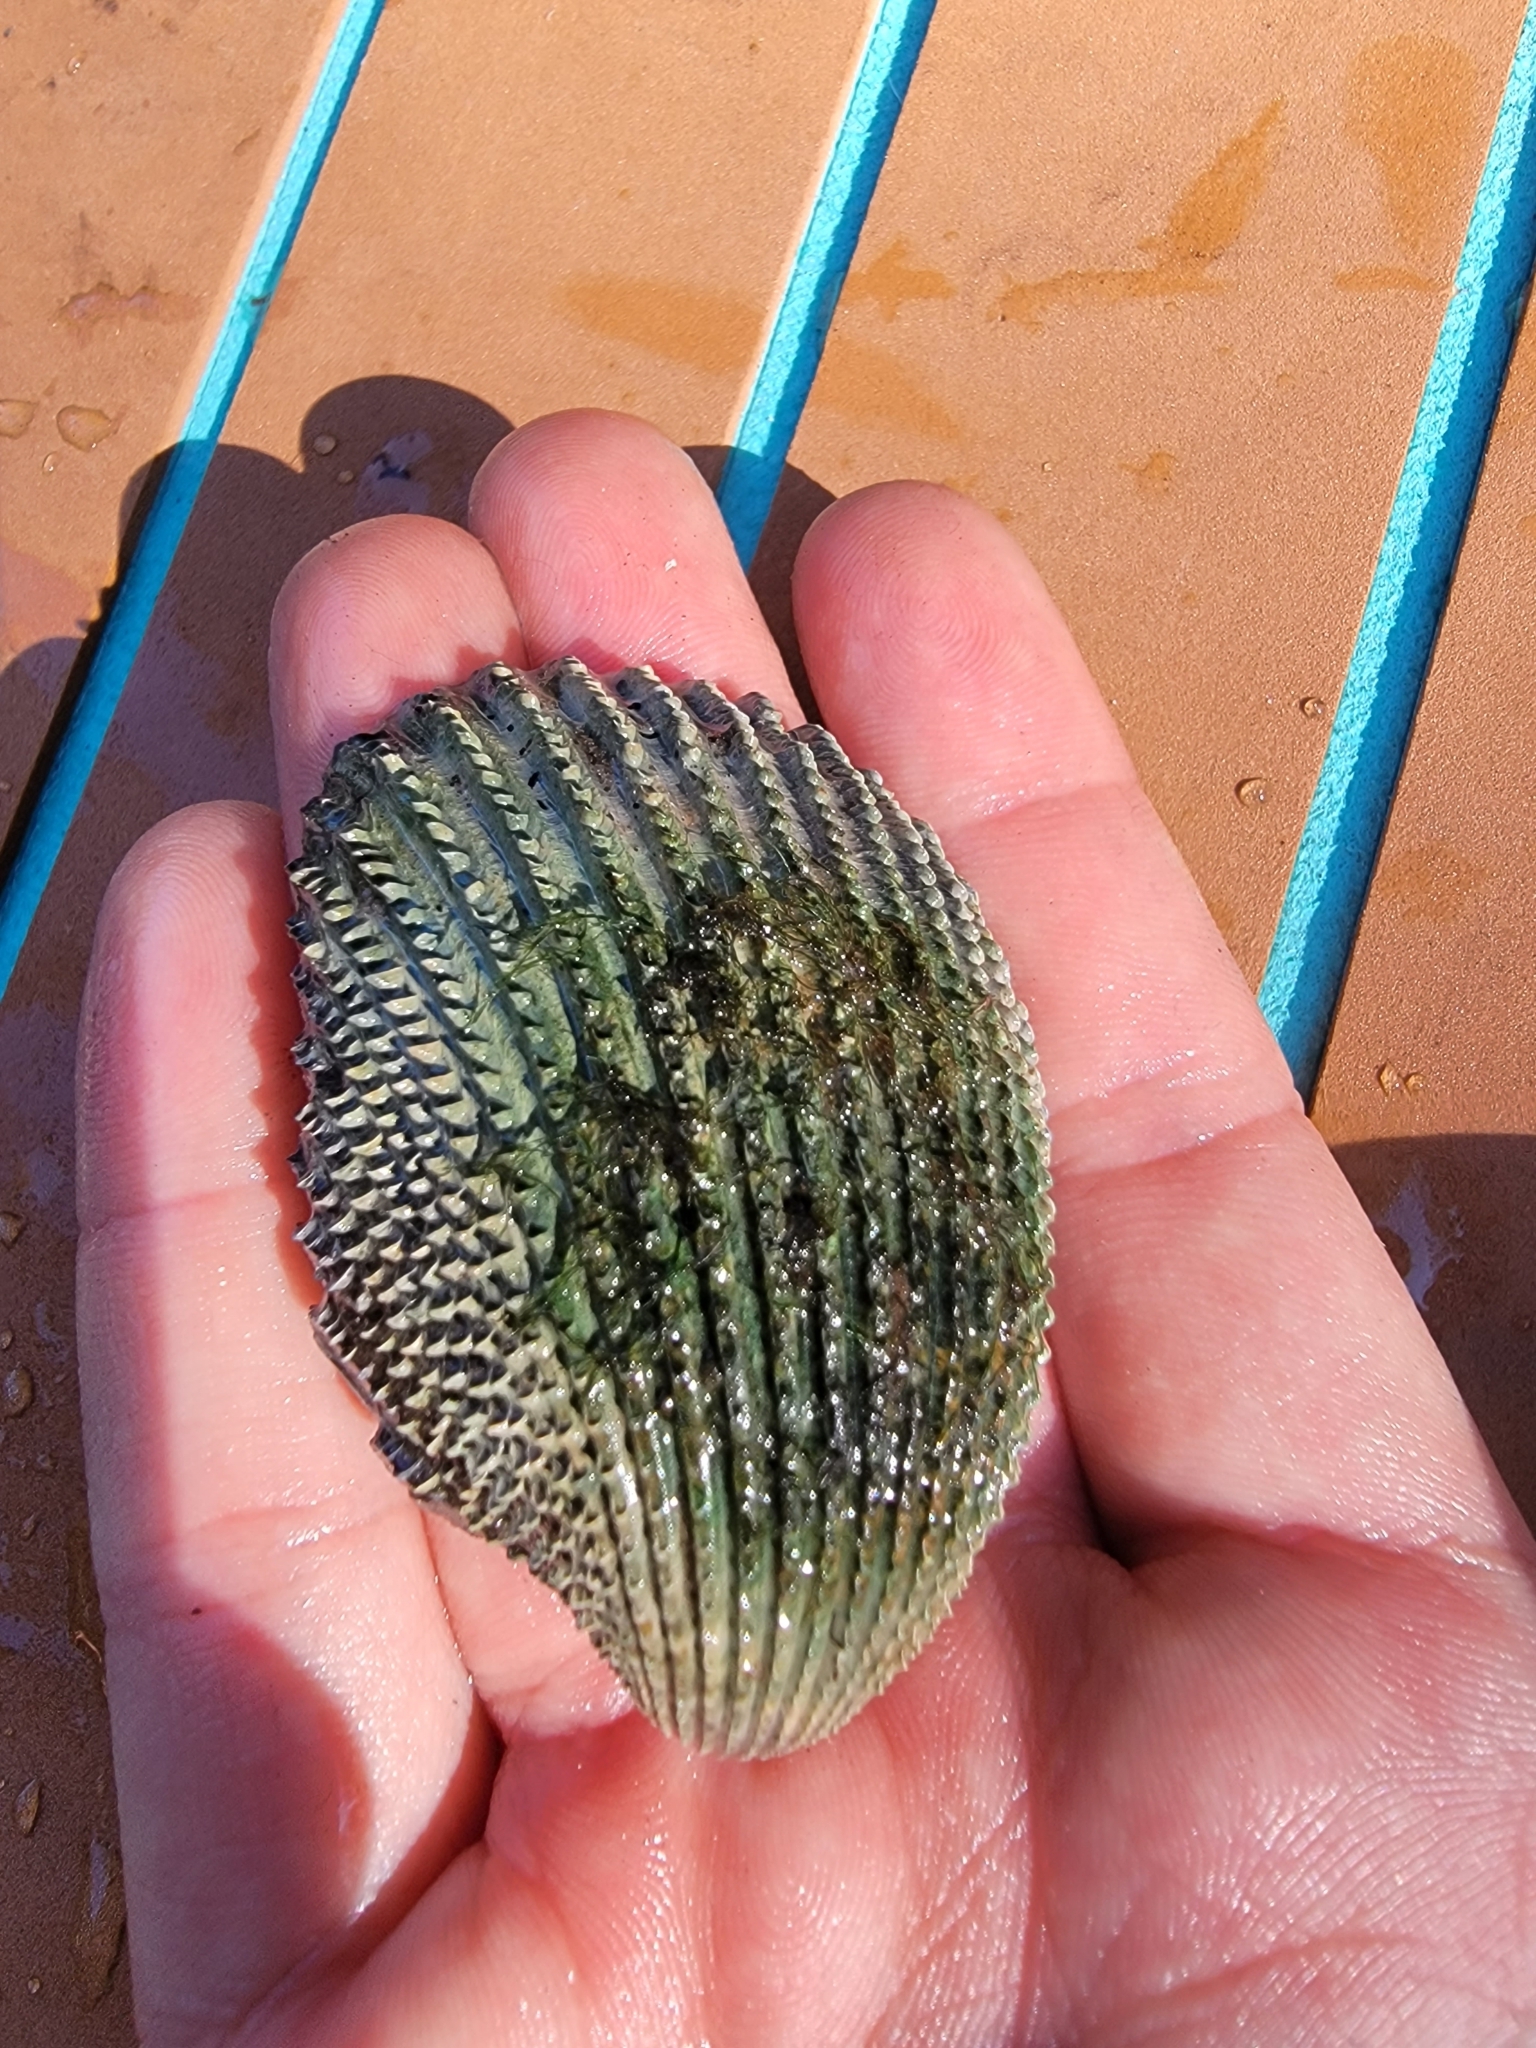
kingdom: Animalia
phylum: Mollusca
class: Bivalvia
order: Cardiida
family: Cardiidae
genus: Trachycardium
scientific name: Trachycardium egmontianum
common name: Florida pricklycockle
